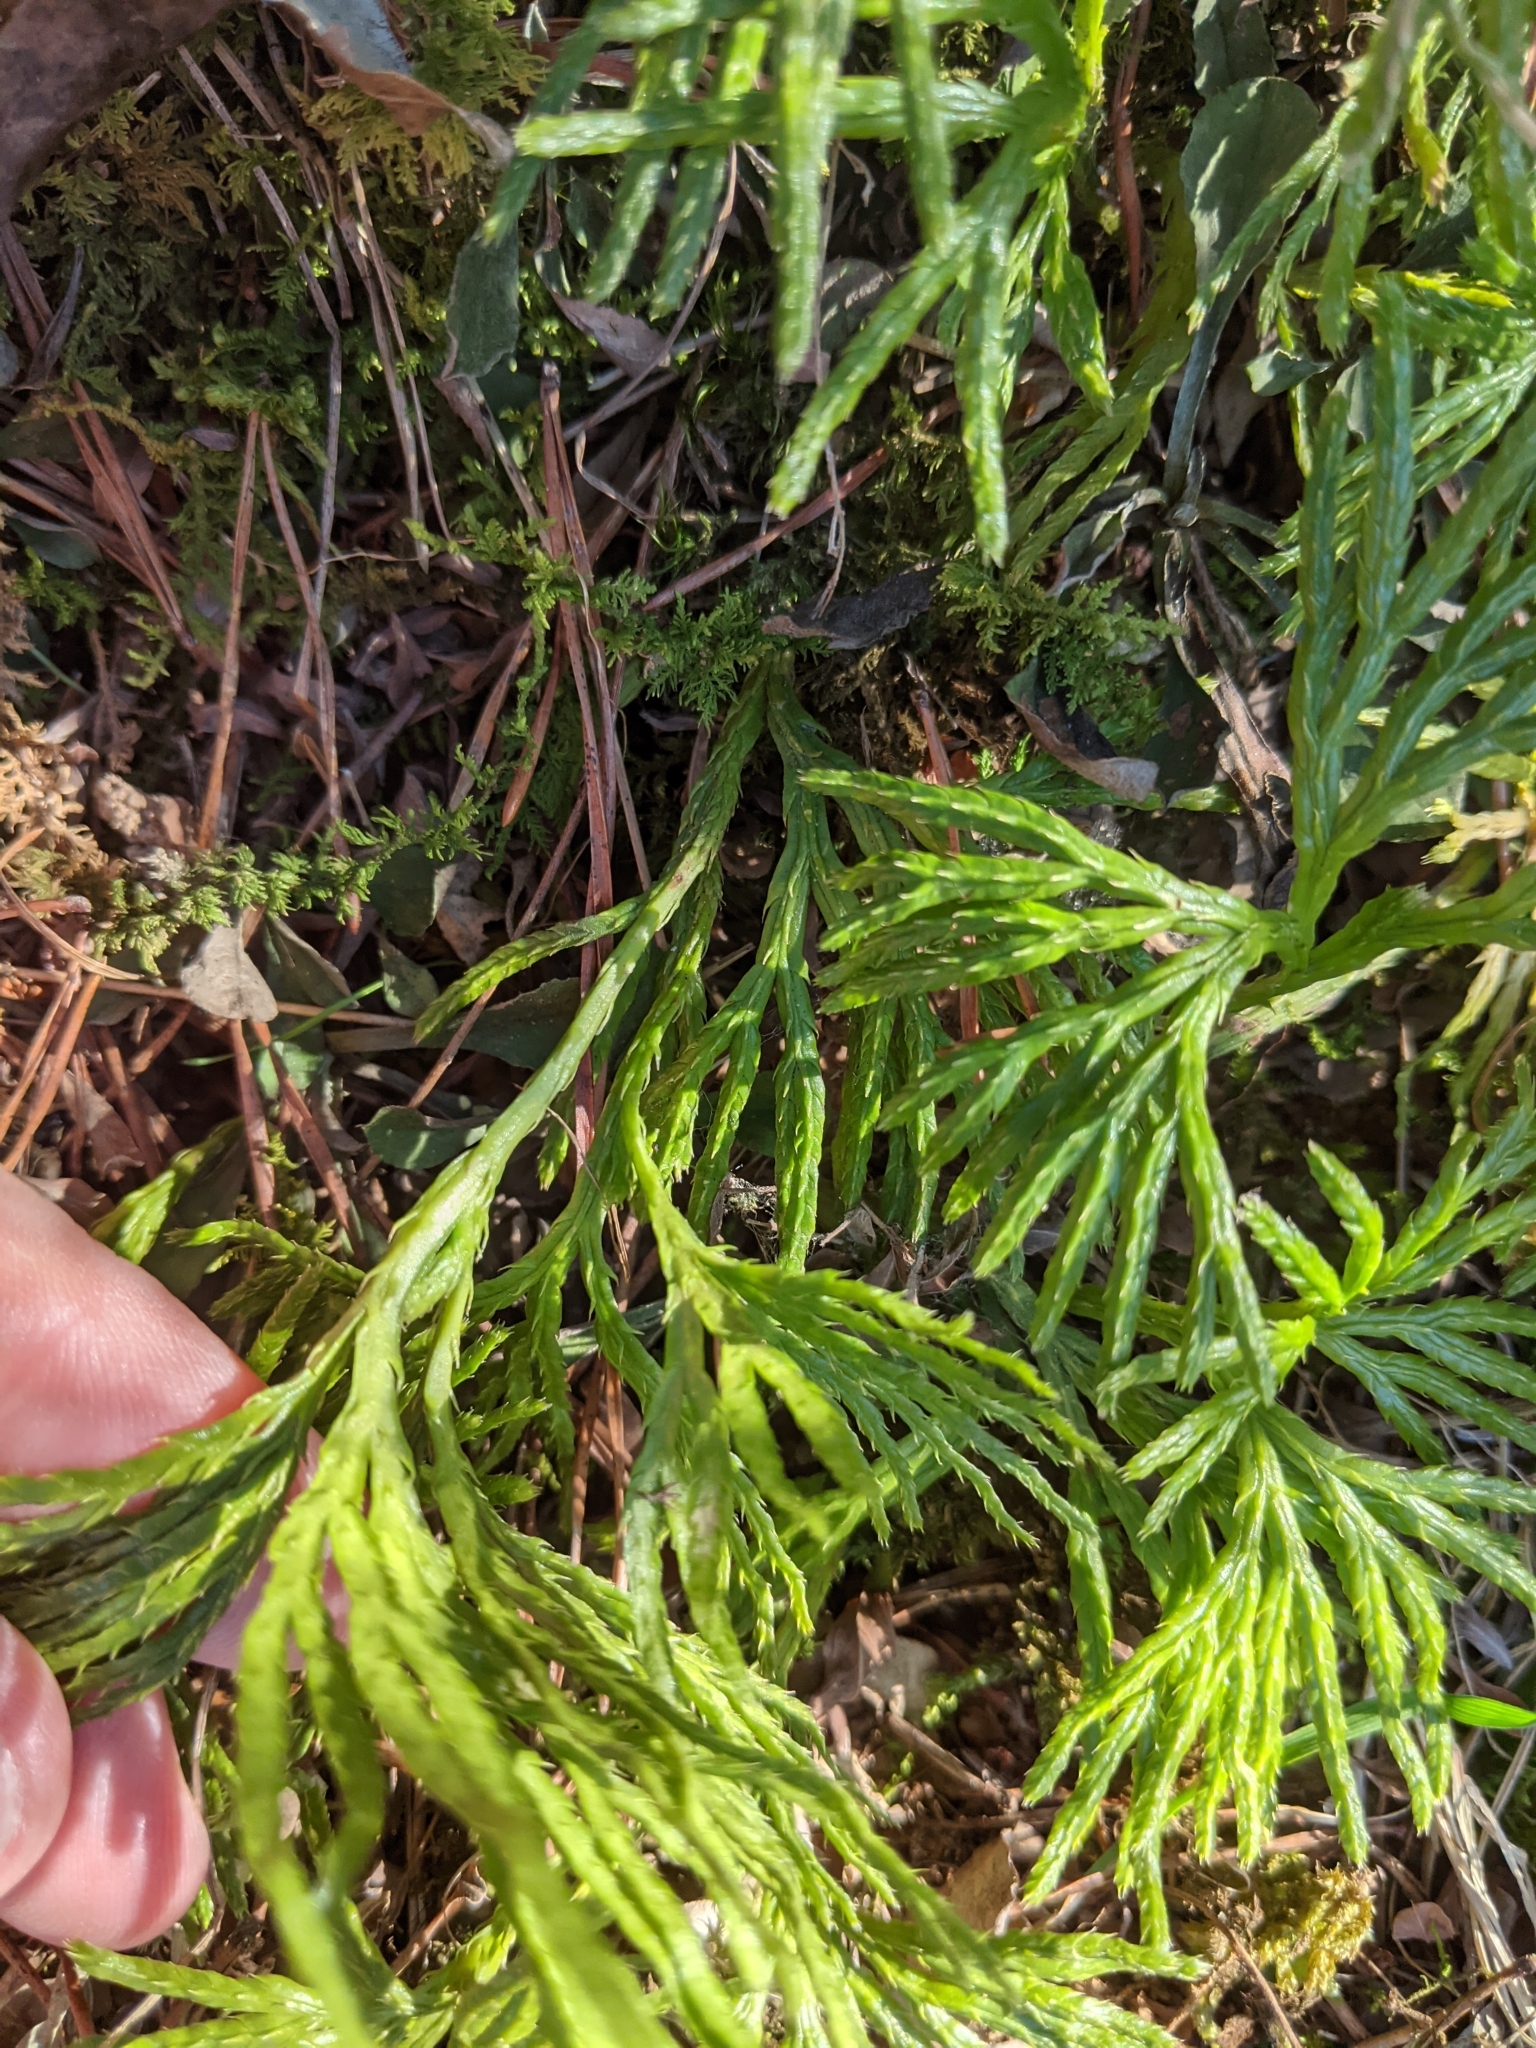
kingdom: Plantae
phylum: Tracheophyta
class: Lycopodiopsida
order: Lycopodiales
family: Lycopodiaceae
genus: Diphasiastrum
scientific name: Diphasiastrum digitatum
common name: Southern running-pine
